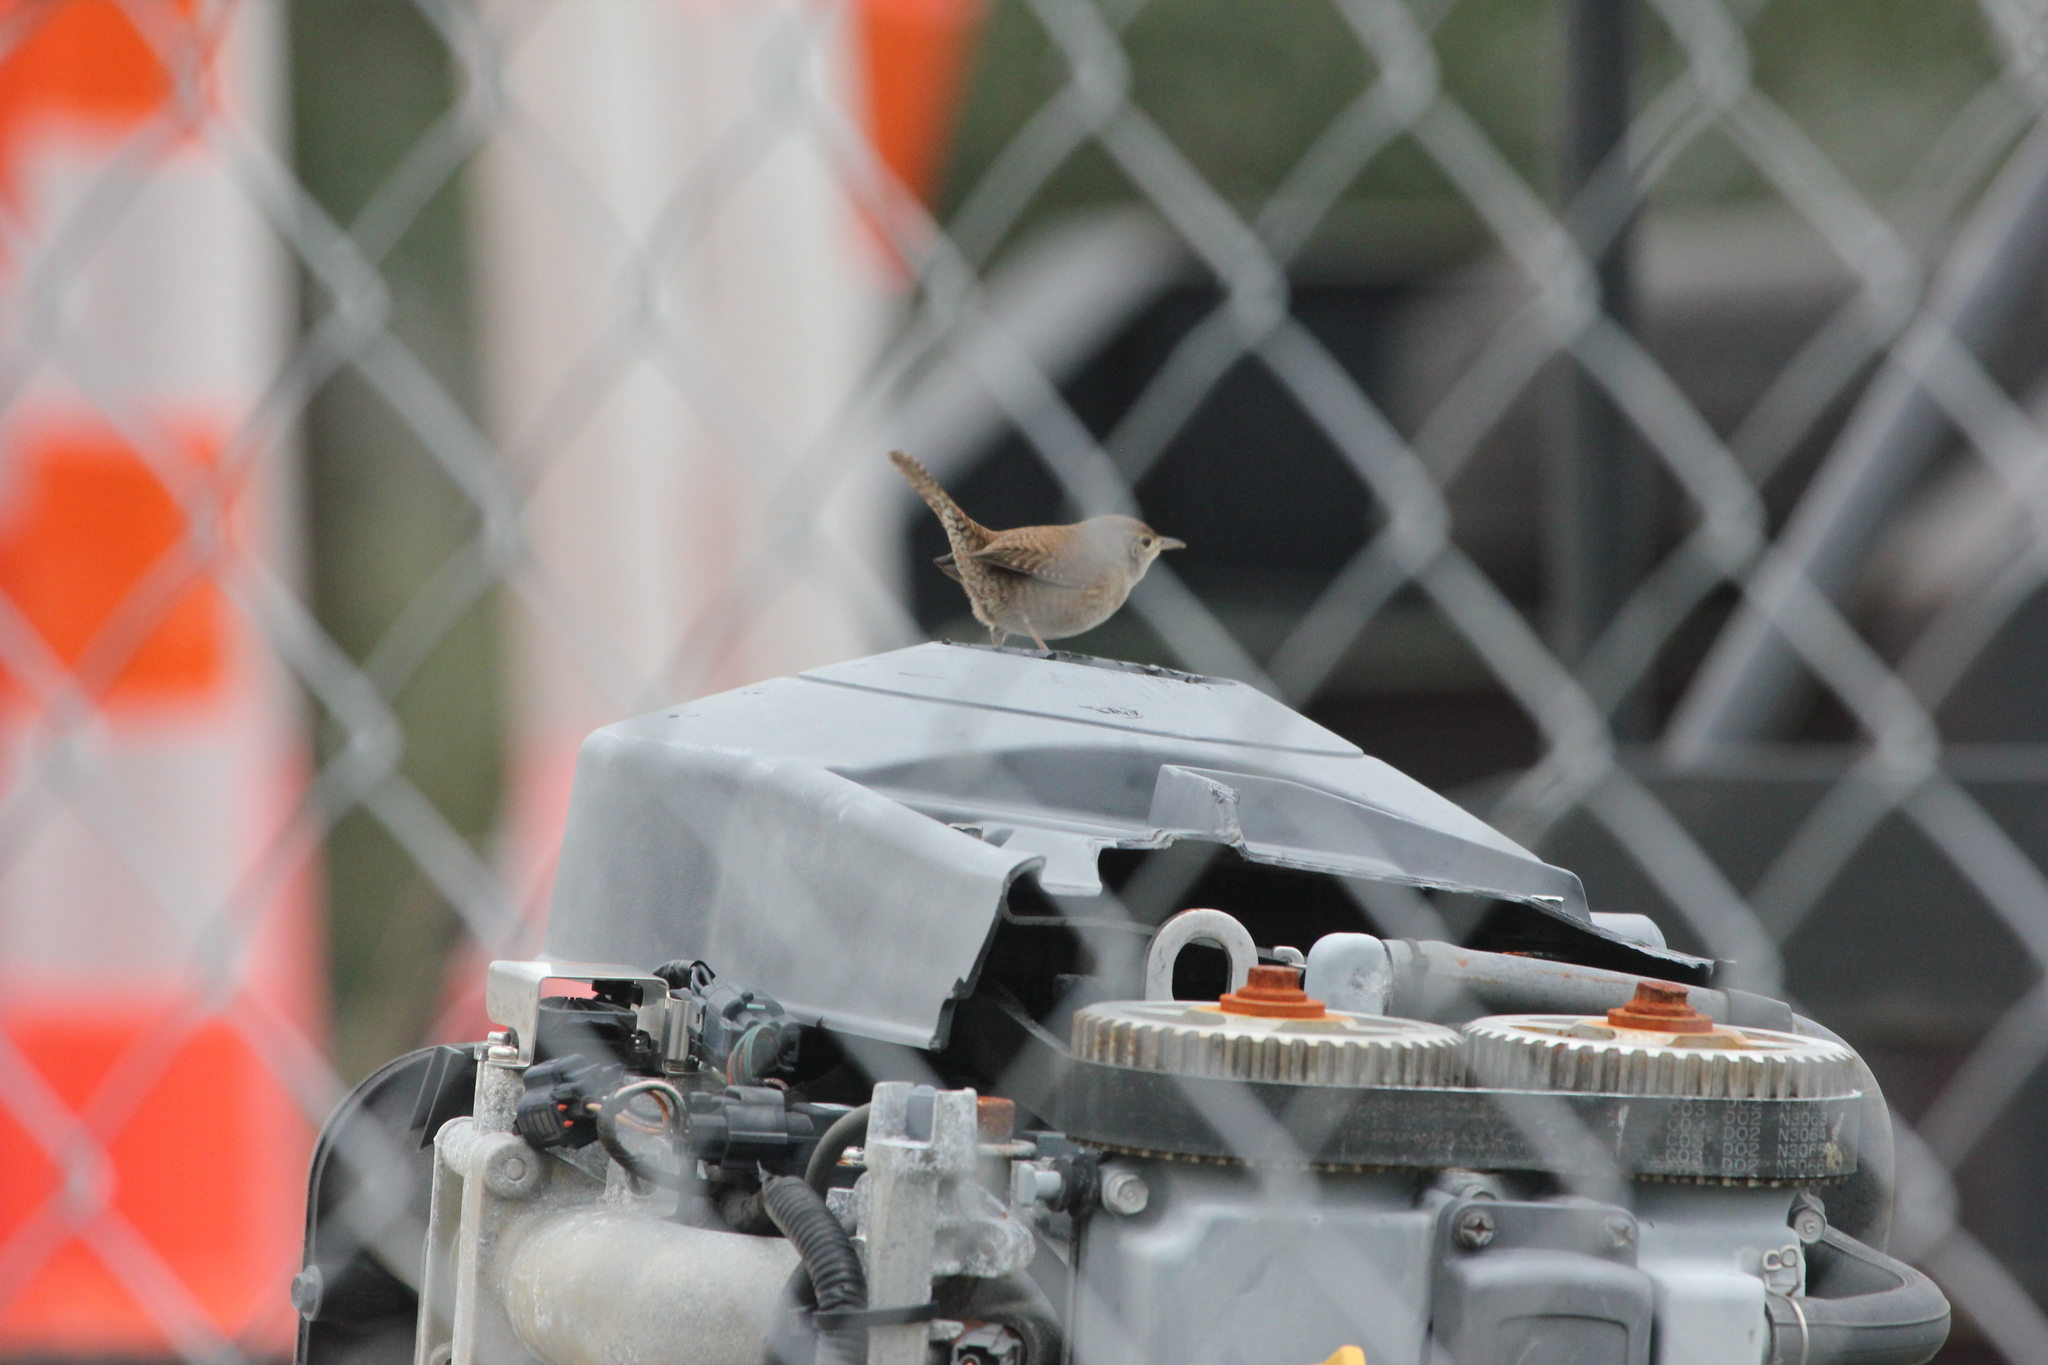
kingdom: Animalia
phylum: Chordata
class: Aves
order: Passeriformes
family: Troglodytidae
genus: Troglodytes
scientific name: Troglodytes aedon
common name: House wren
